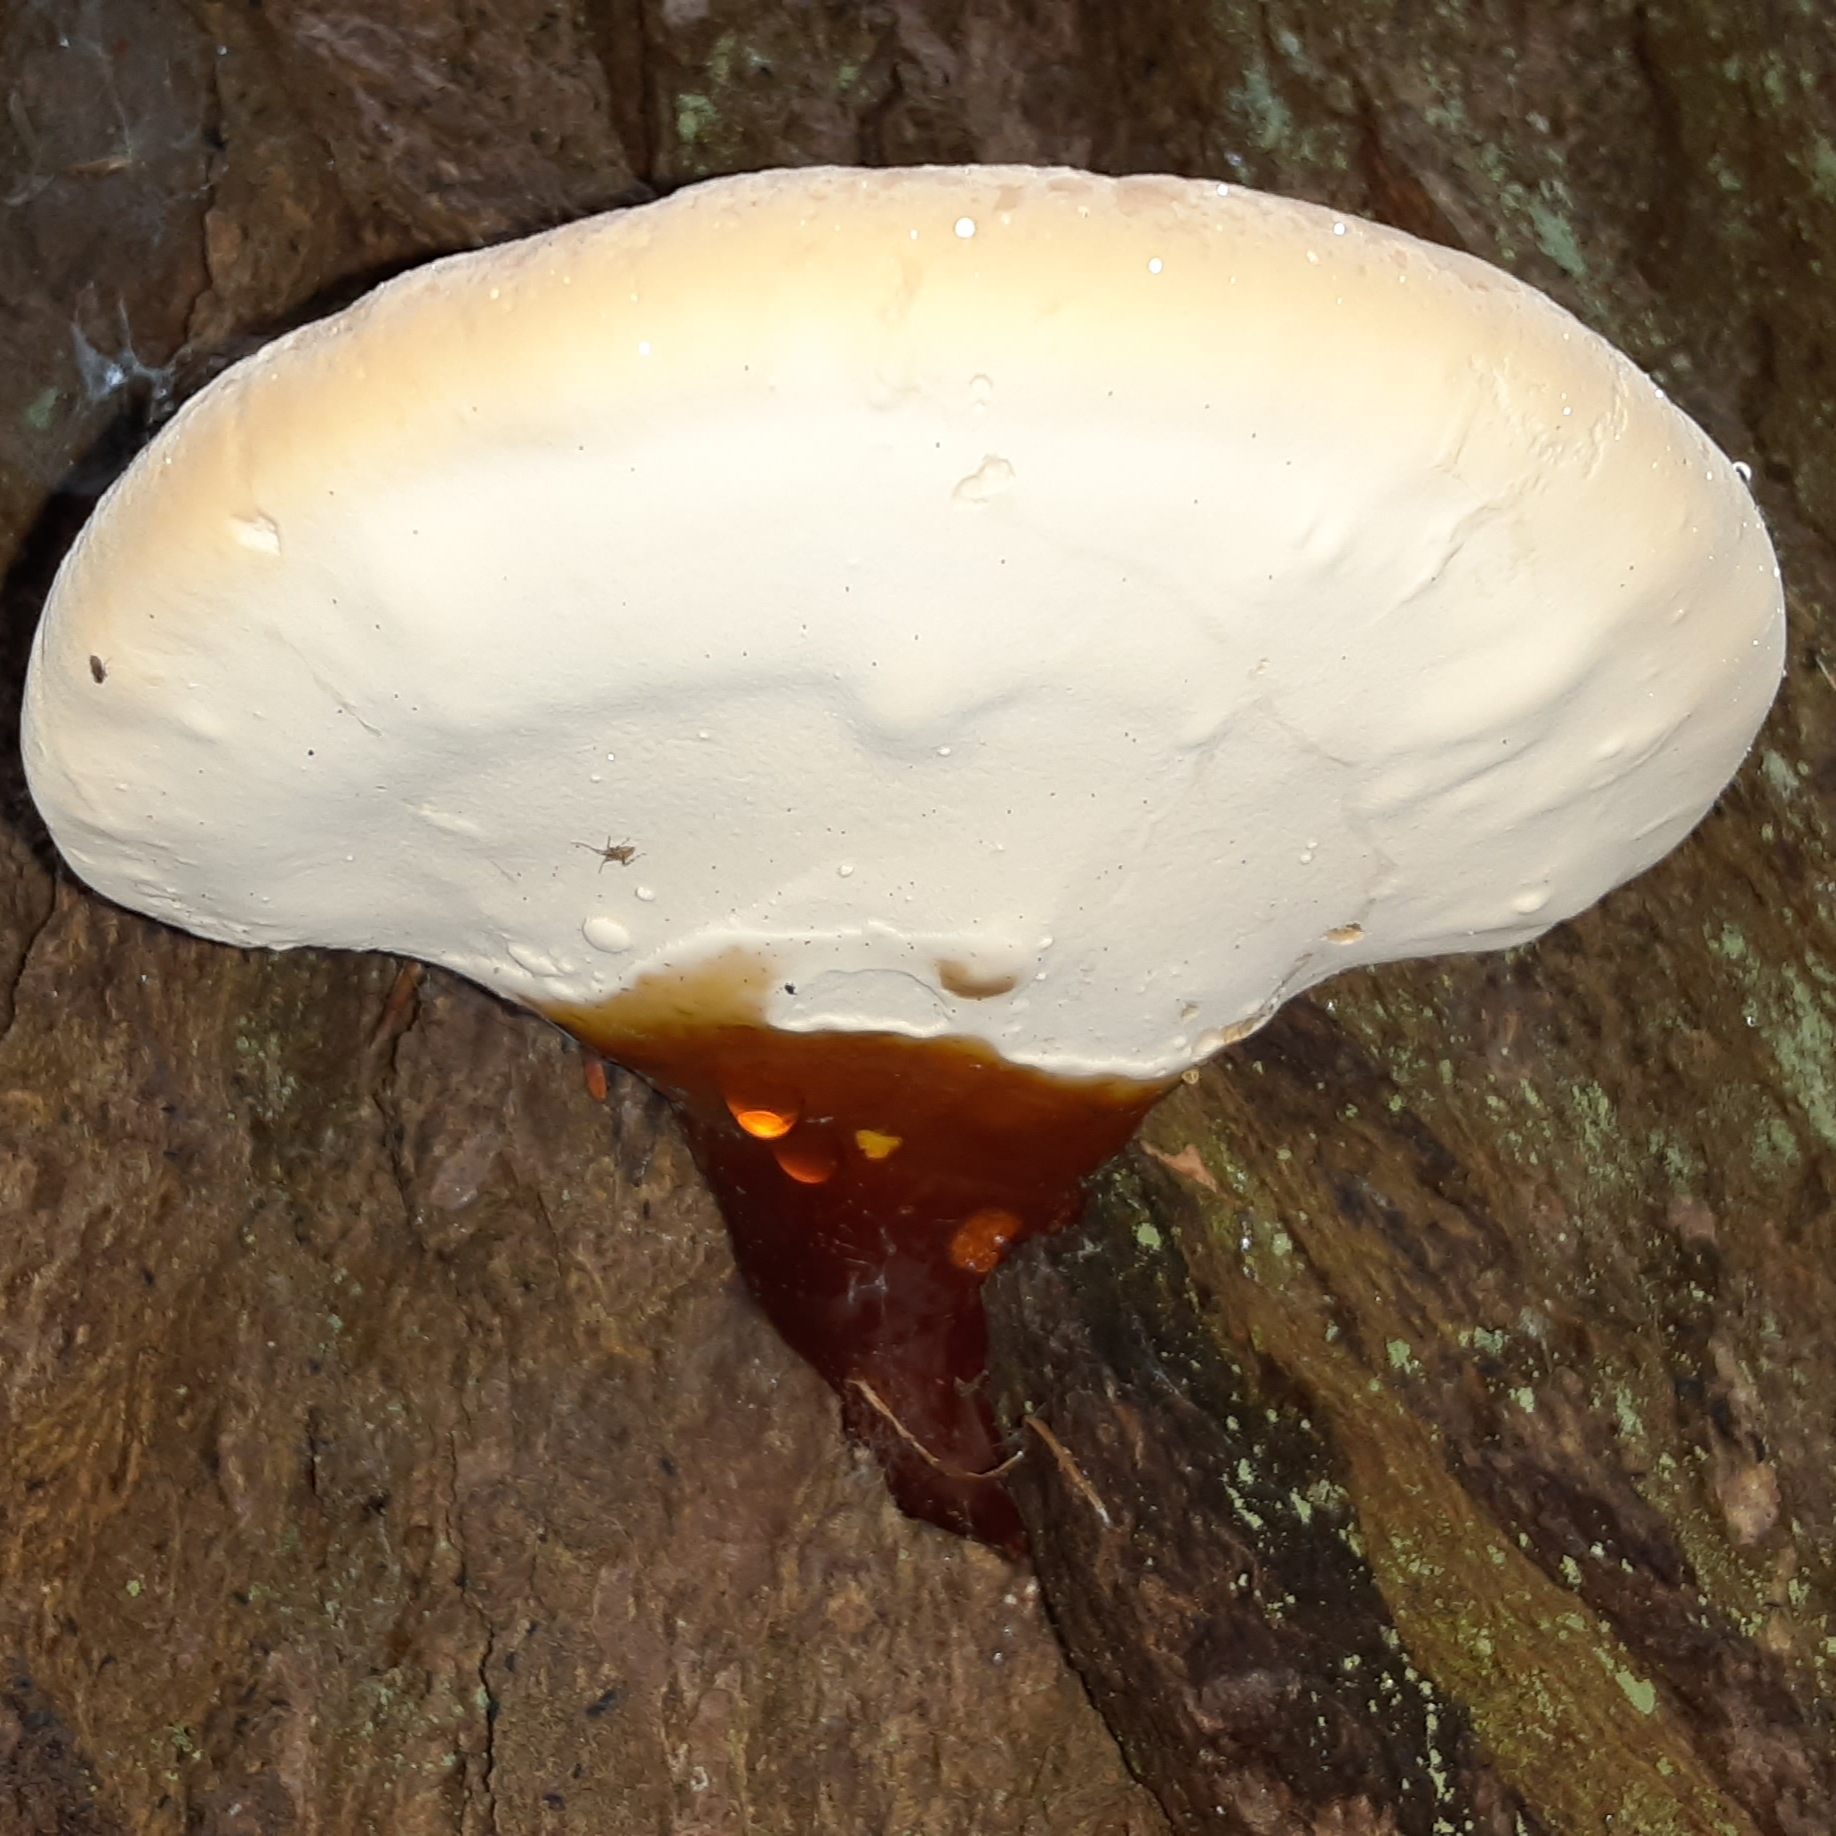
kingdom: Fungi
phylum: Basidiomycota
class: Agaricomycetes
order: Polyporales
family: Polyporaceae
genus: Ganoderma
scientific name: Ganoderma tsugae
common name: Hemlock varnish shelf
